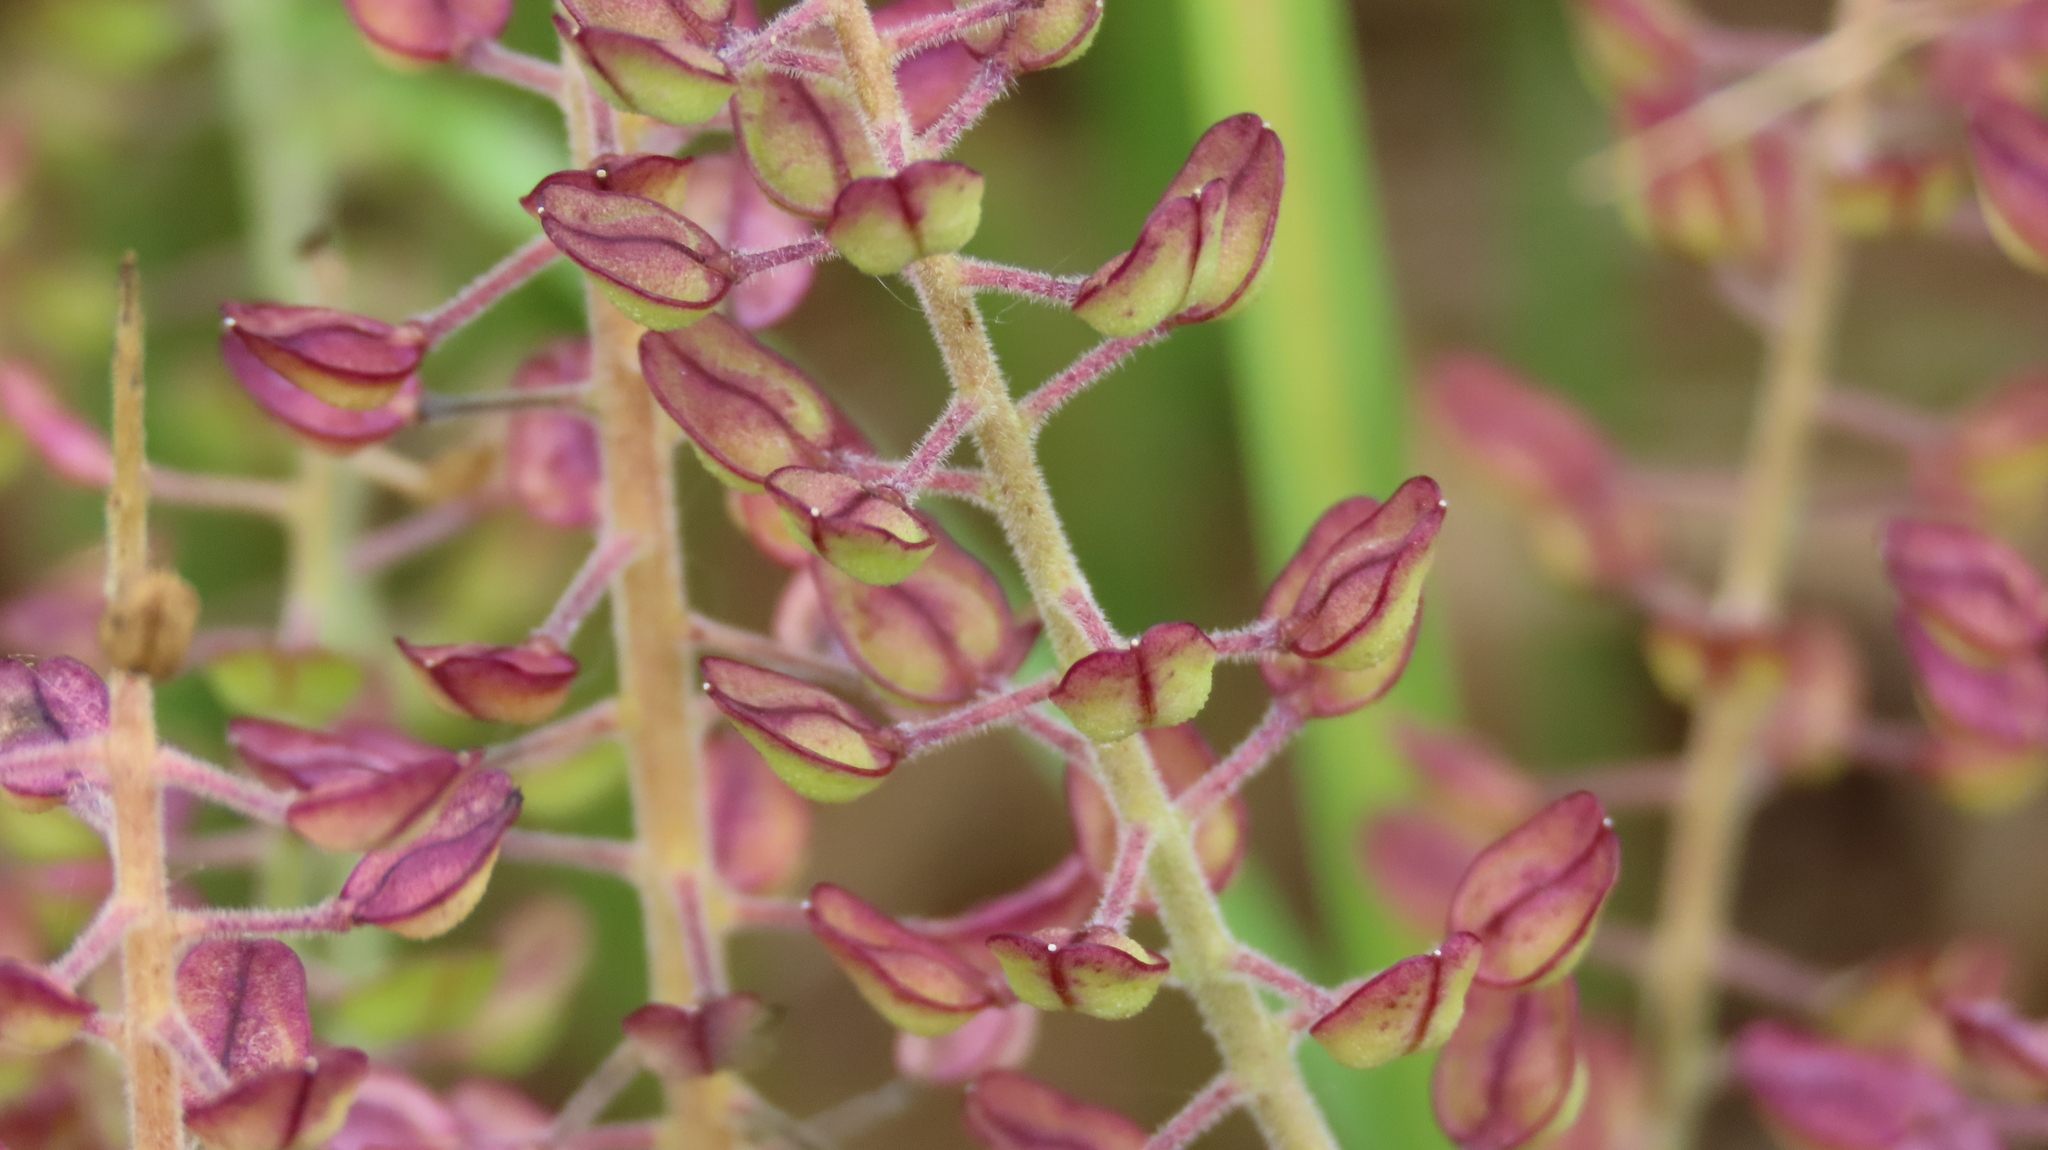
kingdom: Plantae
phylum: Tracheophyta
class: Magnoliopsida
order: Brassicales
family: Brassicaceae
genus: Lepidium
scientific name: Lepidium campestre
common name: Field pepperwort
